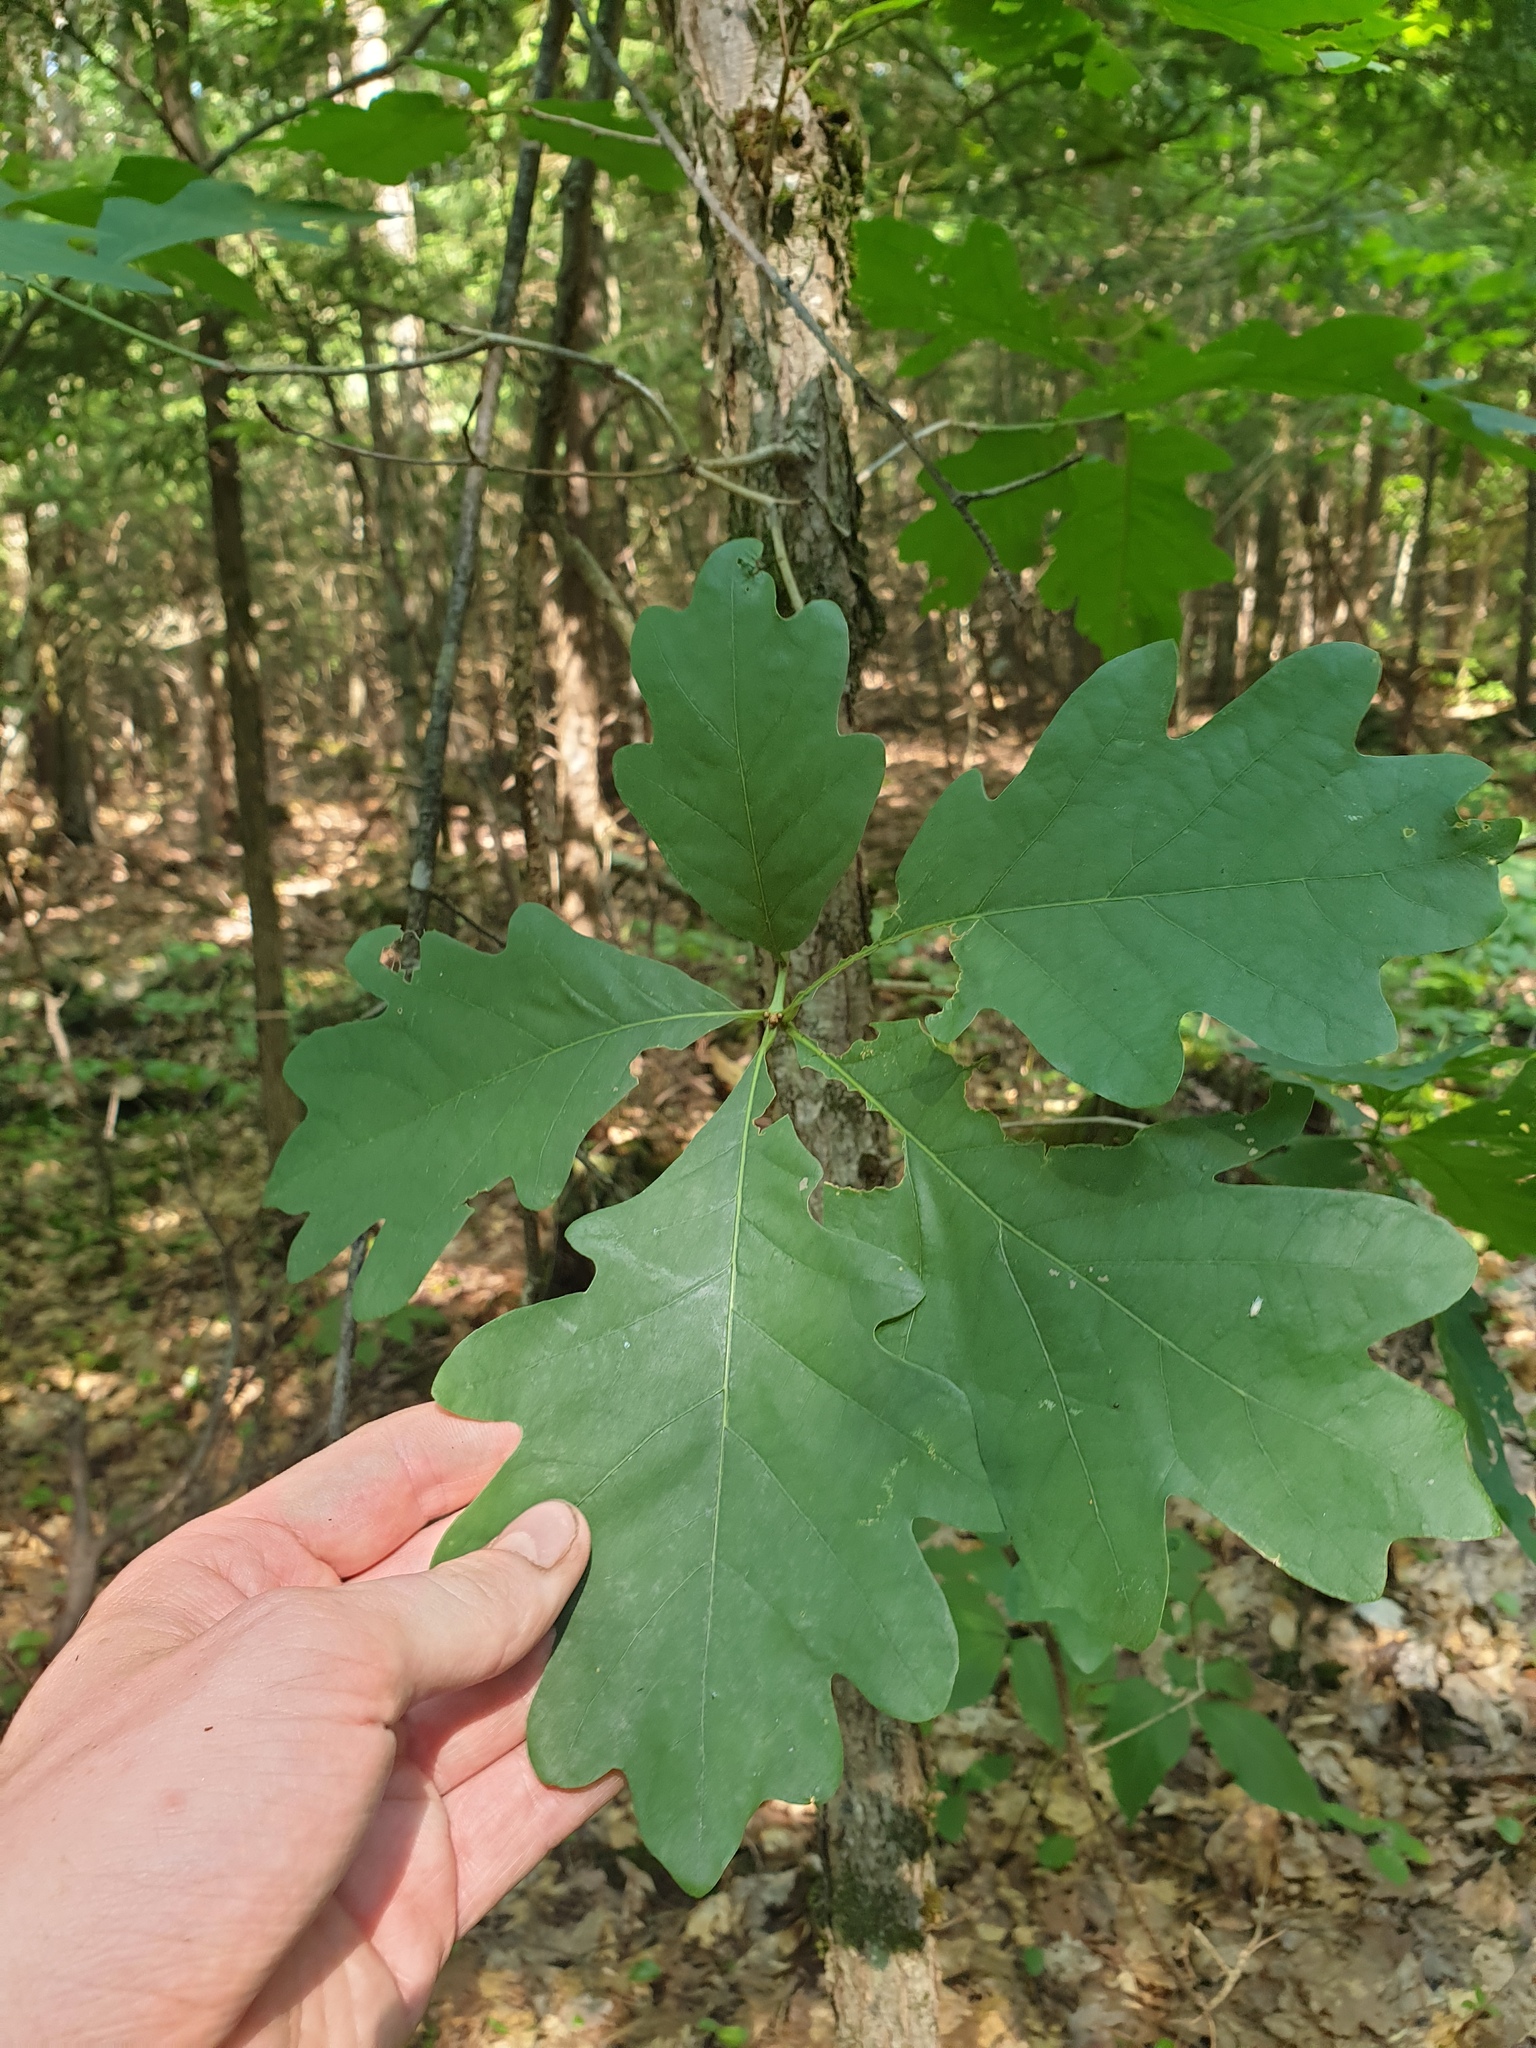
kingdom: Plantae
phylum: Tracheophyta
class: Magnoliopsida
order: Fagales
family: Fagaceae
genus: Quercus
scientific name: Quercus alba
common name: White oak
